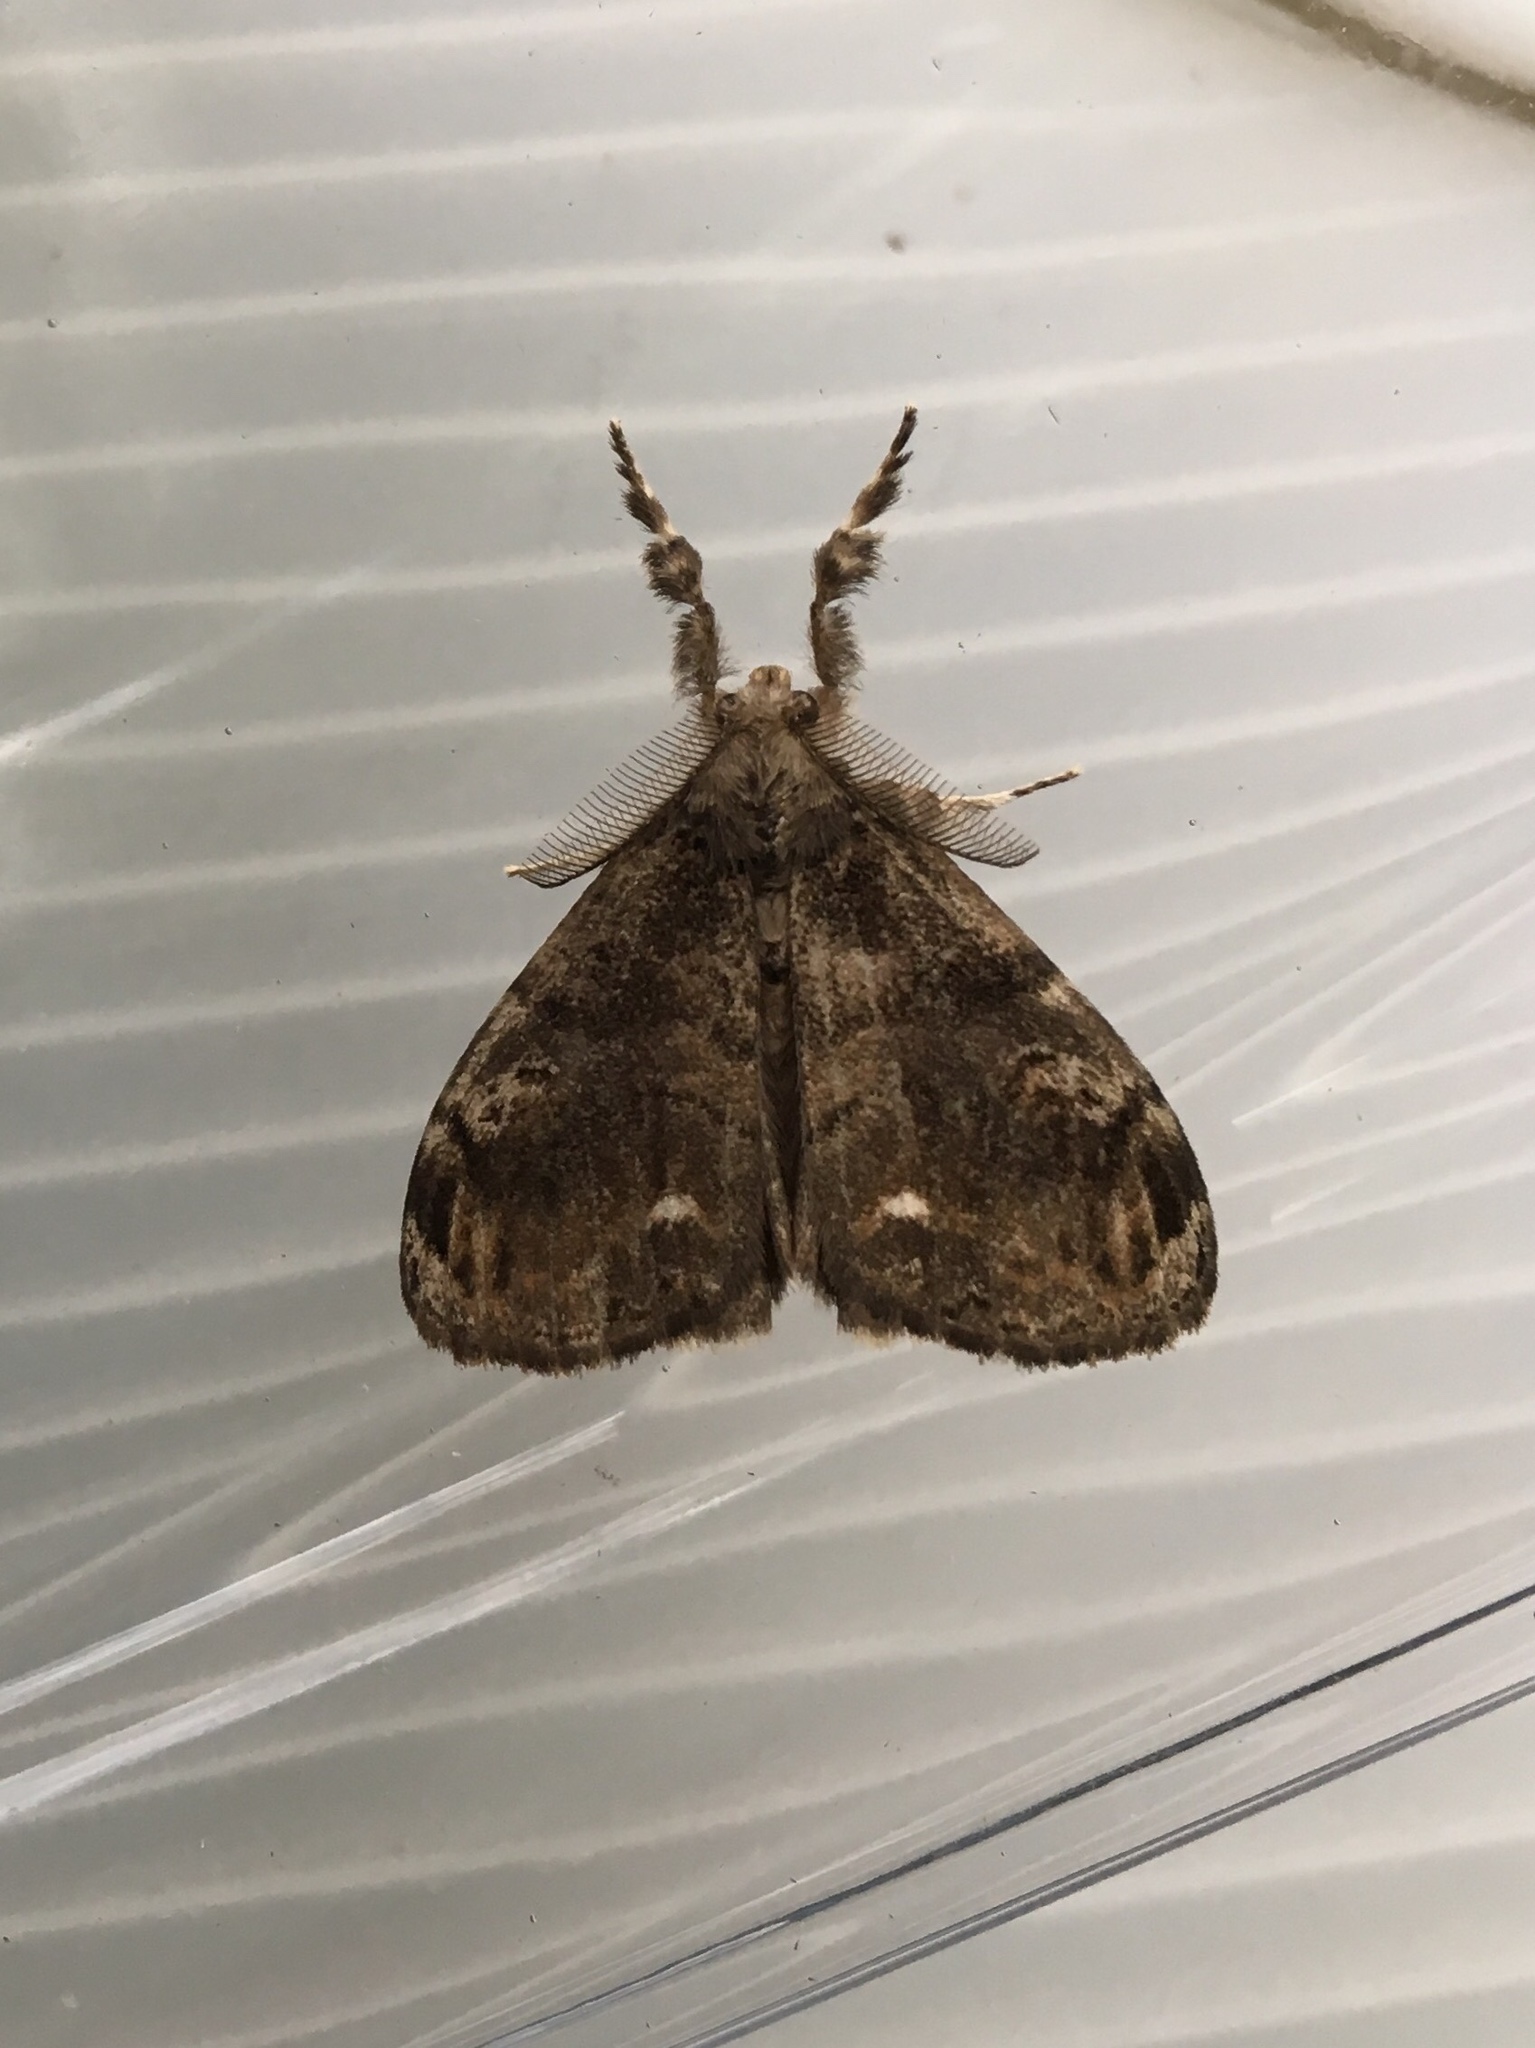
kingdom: Animalia
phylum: Arthropoda
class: Insecta
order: Lepidoptera
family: Erebidae
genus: Orgyia
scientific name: Orgyia definita
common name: Definite tussock moth
